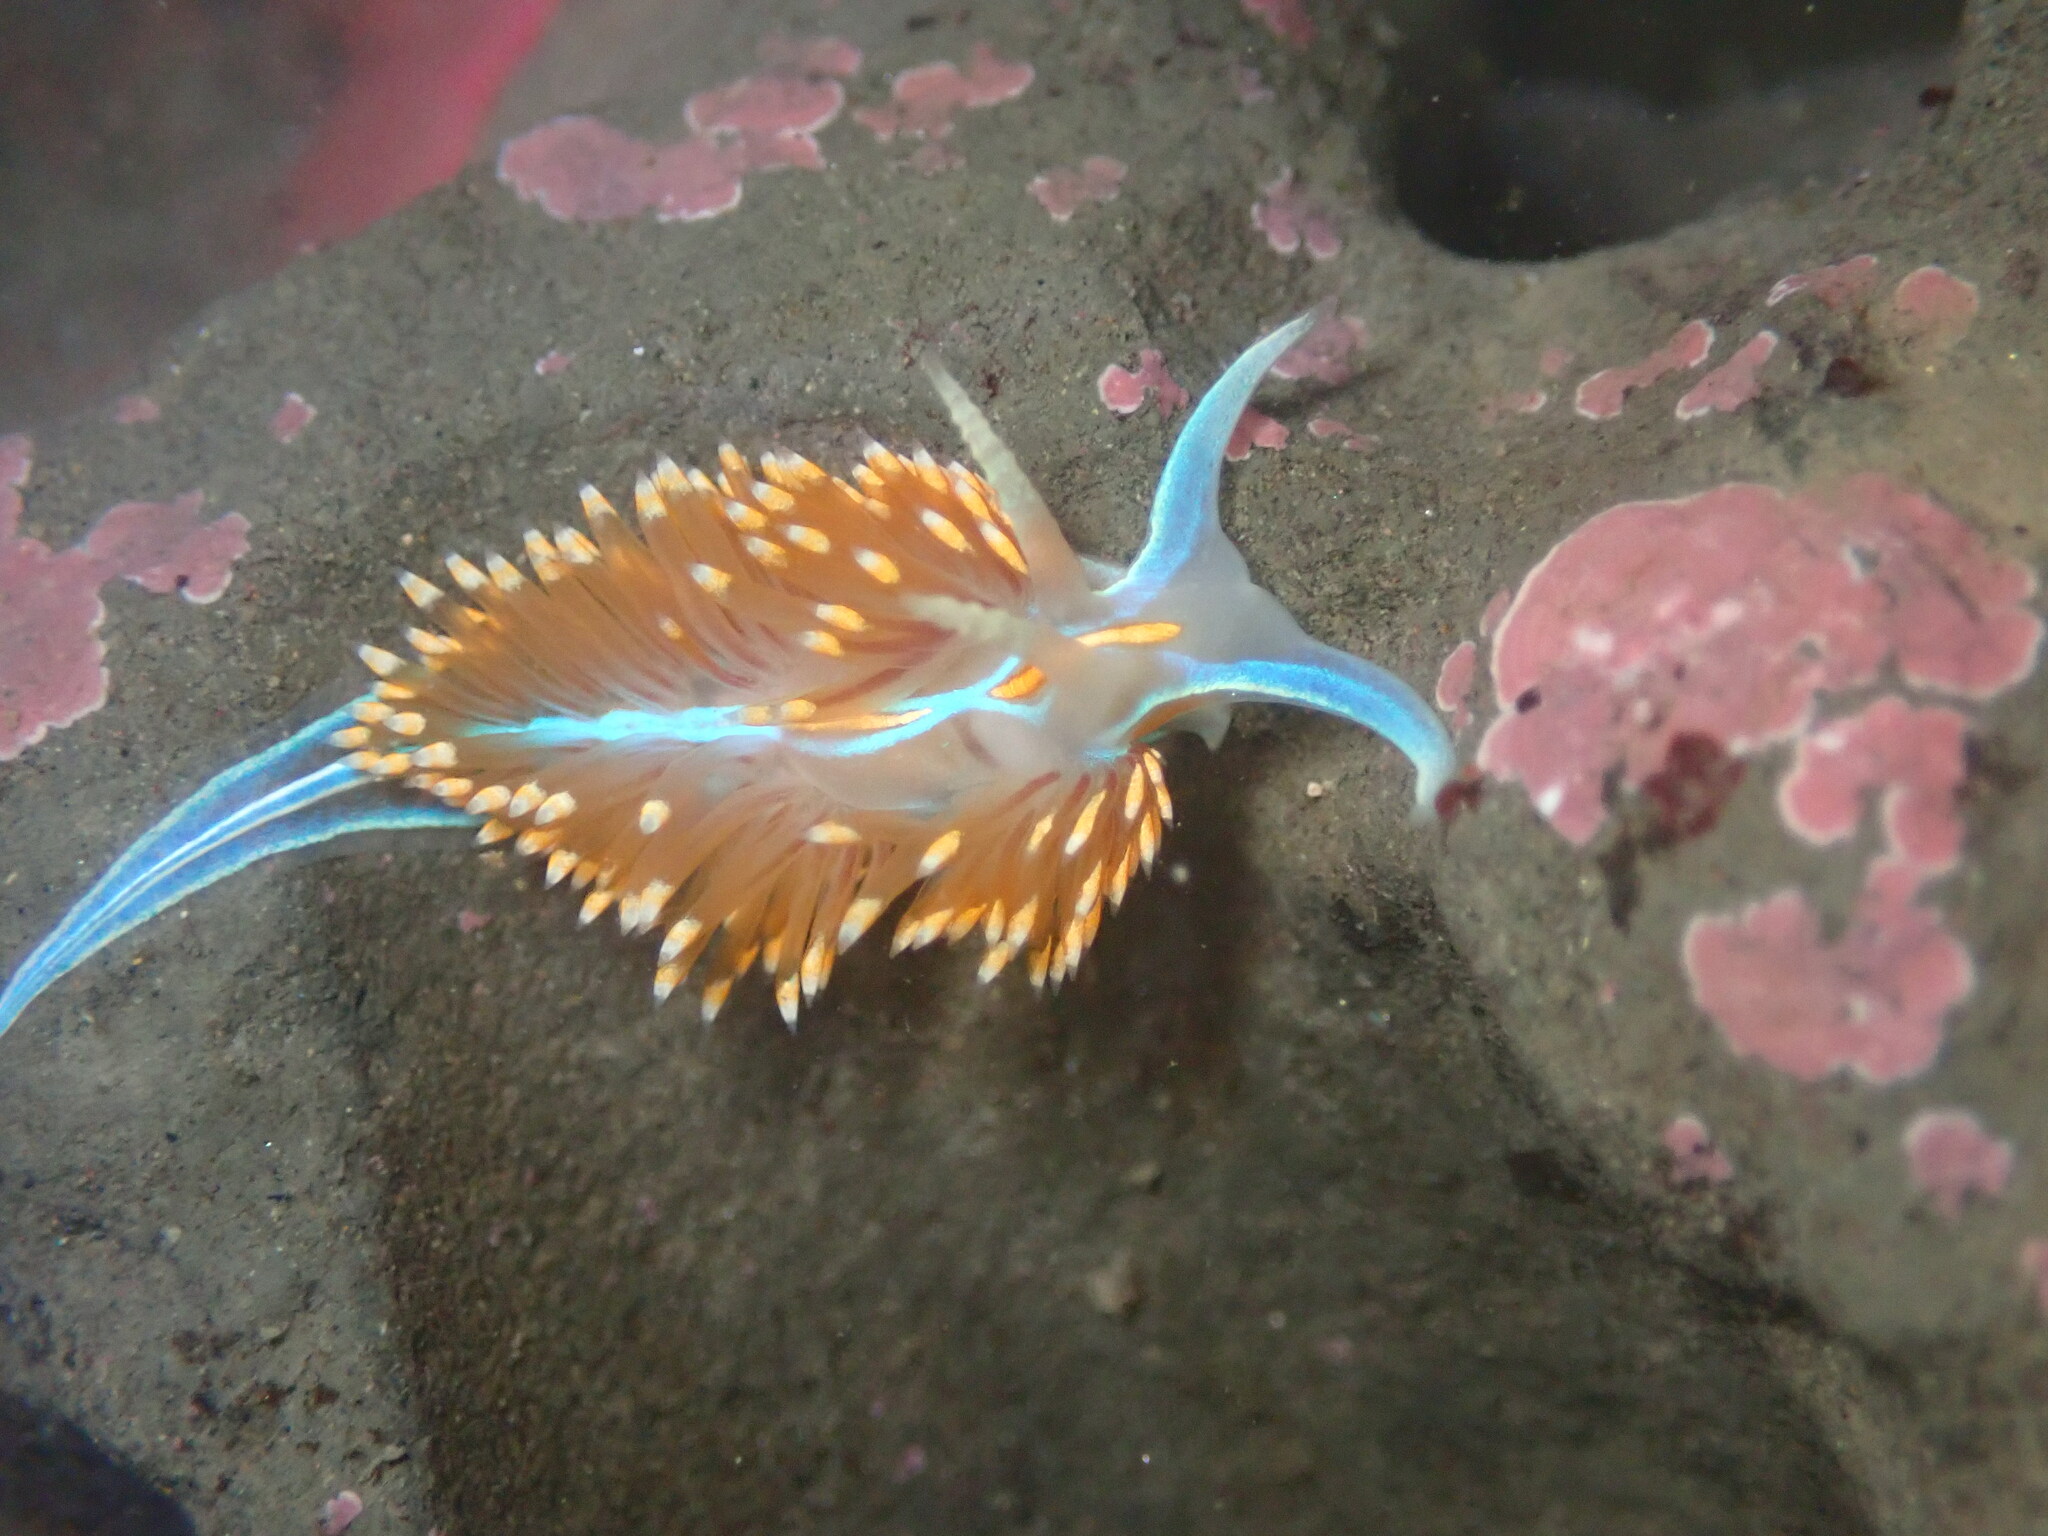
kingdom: Animalia
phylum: Mollusca
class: Gastropoda
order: Nudibranchia
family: Myrrhinidae
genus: Hermissenda
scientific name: Hermissenda opalescens
